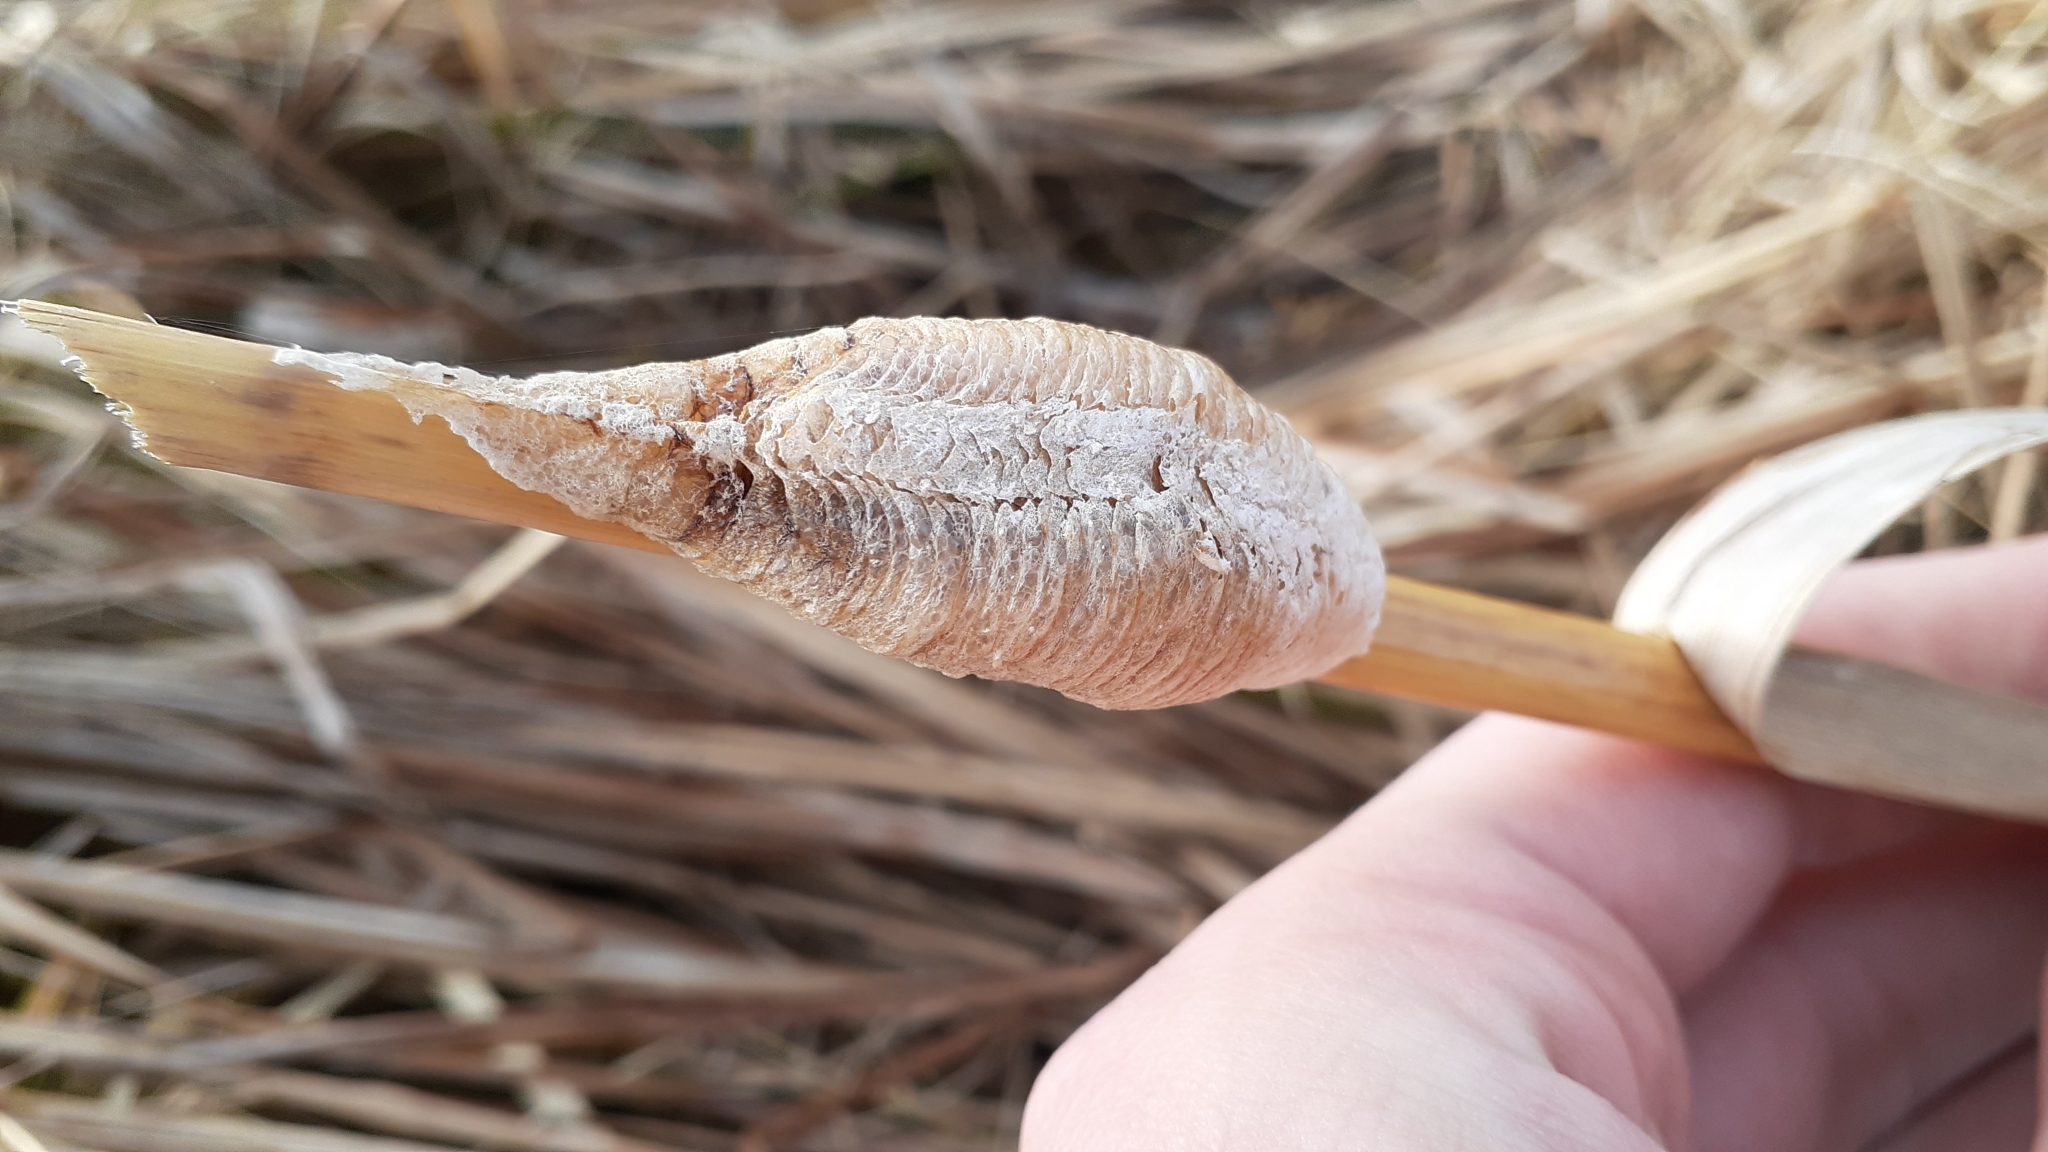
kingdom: Animalia
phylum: Arthropoda
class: Insecta
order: Mantodea
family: Mantidae
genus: Mantis
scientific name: Mantis religiosa
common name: Praying mantis
